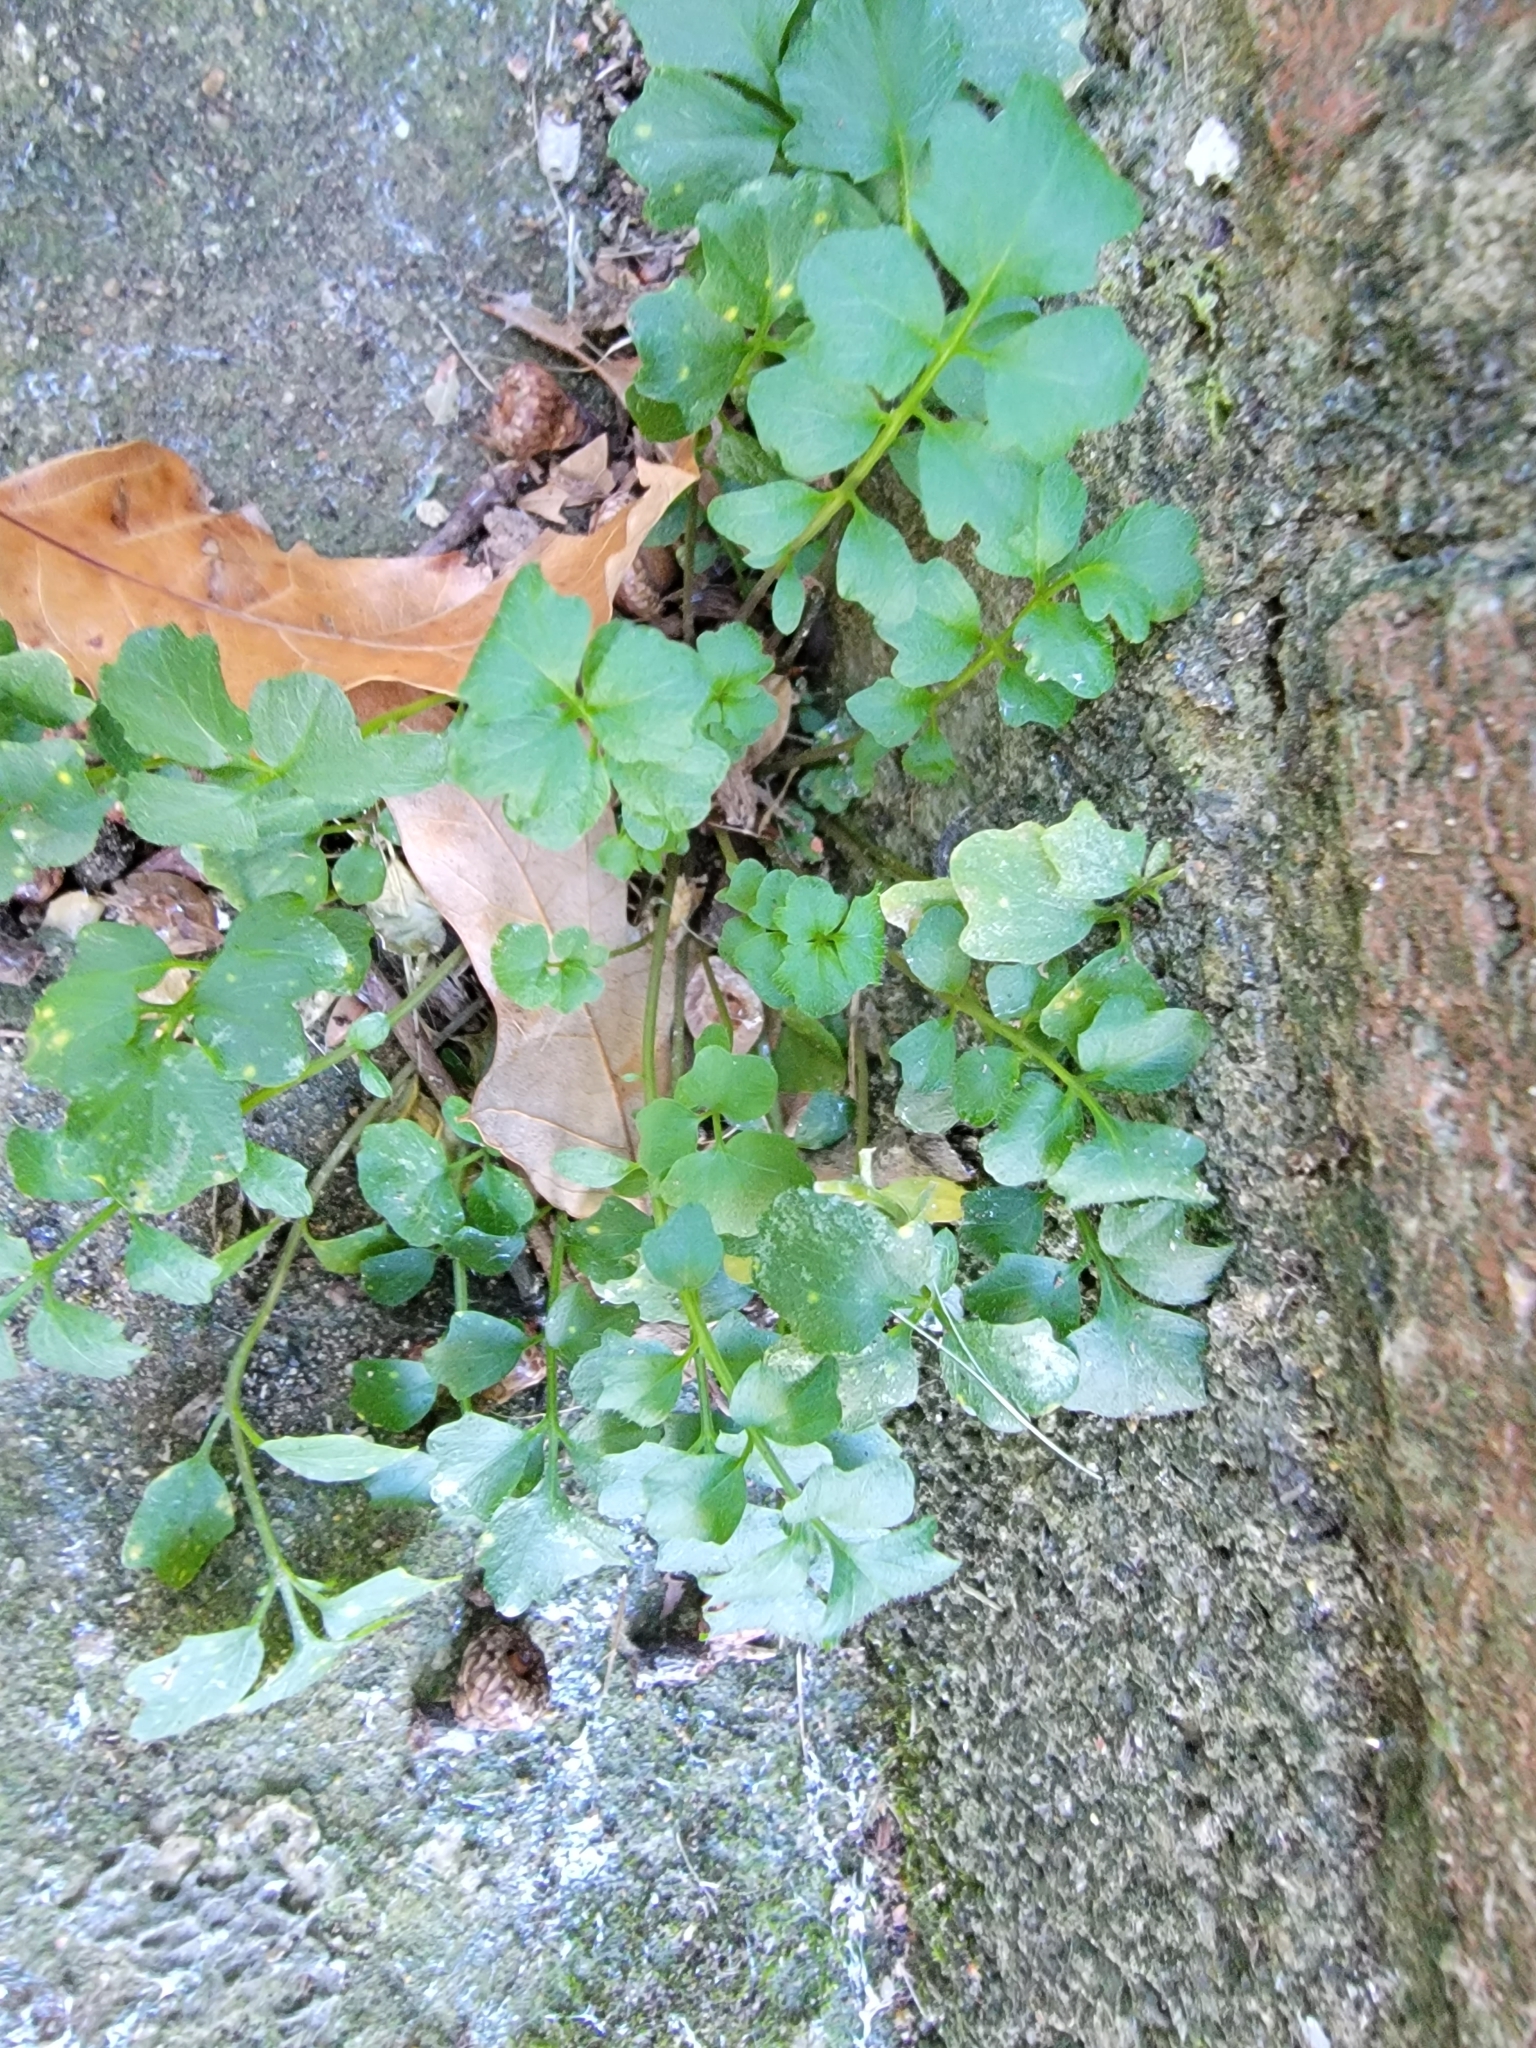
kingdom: Plantae
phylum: Tracheophyta
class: Magnoliopsida
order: Brassicales
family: Brassicaceae
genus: Cardamine
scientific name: Cardamine hirsuta
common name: Hairy bittercress
